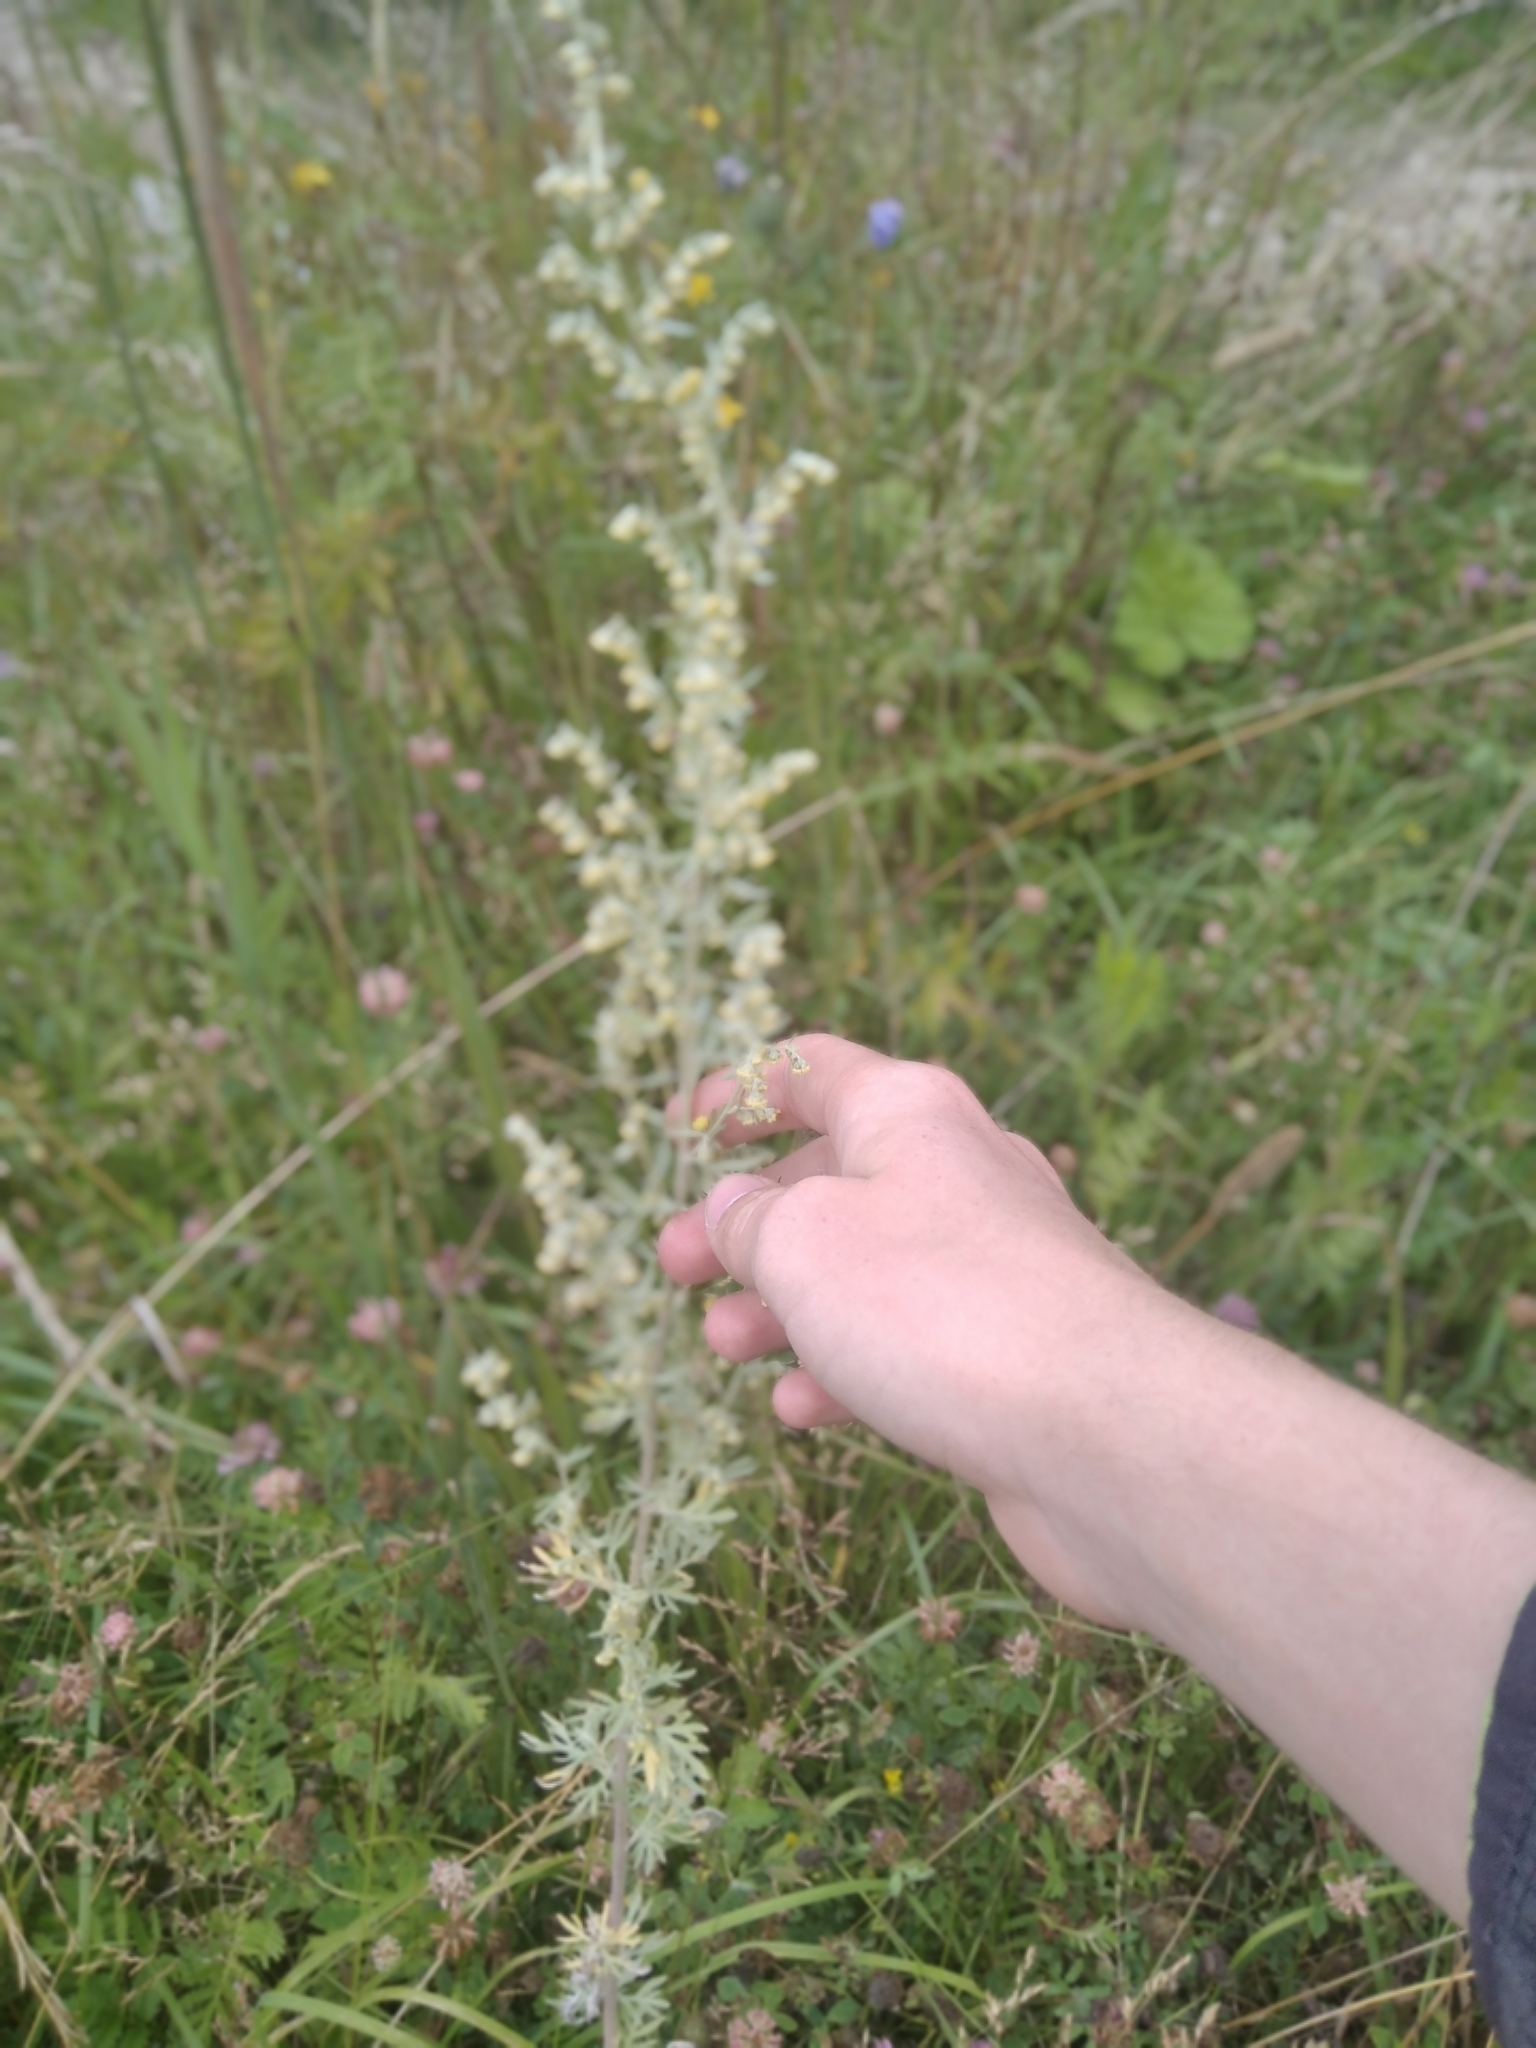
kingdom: Plantae
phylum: Tracheophyta
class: Magnoliopsida
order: Asterales
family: Asteraceae
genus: Artemisia
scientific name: Artemisia absinthium
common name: Wormwood
